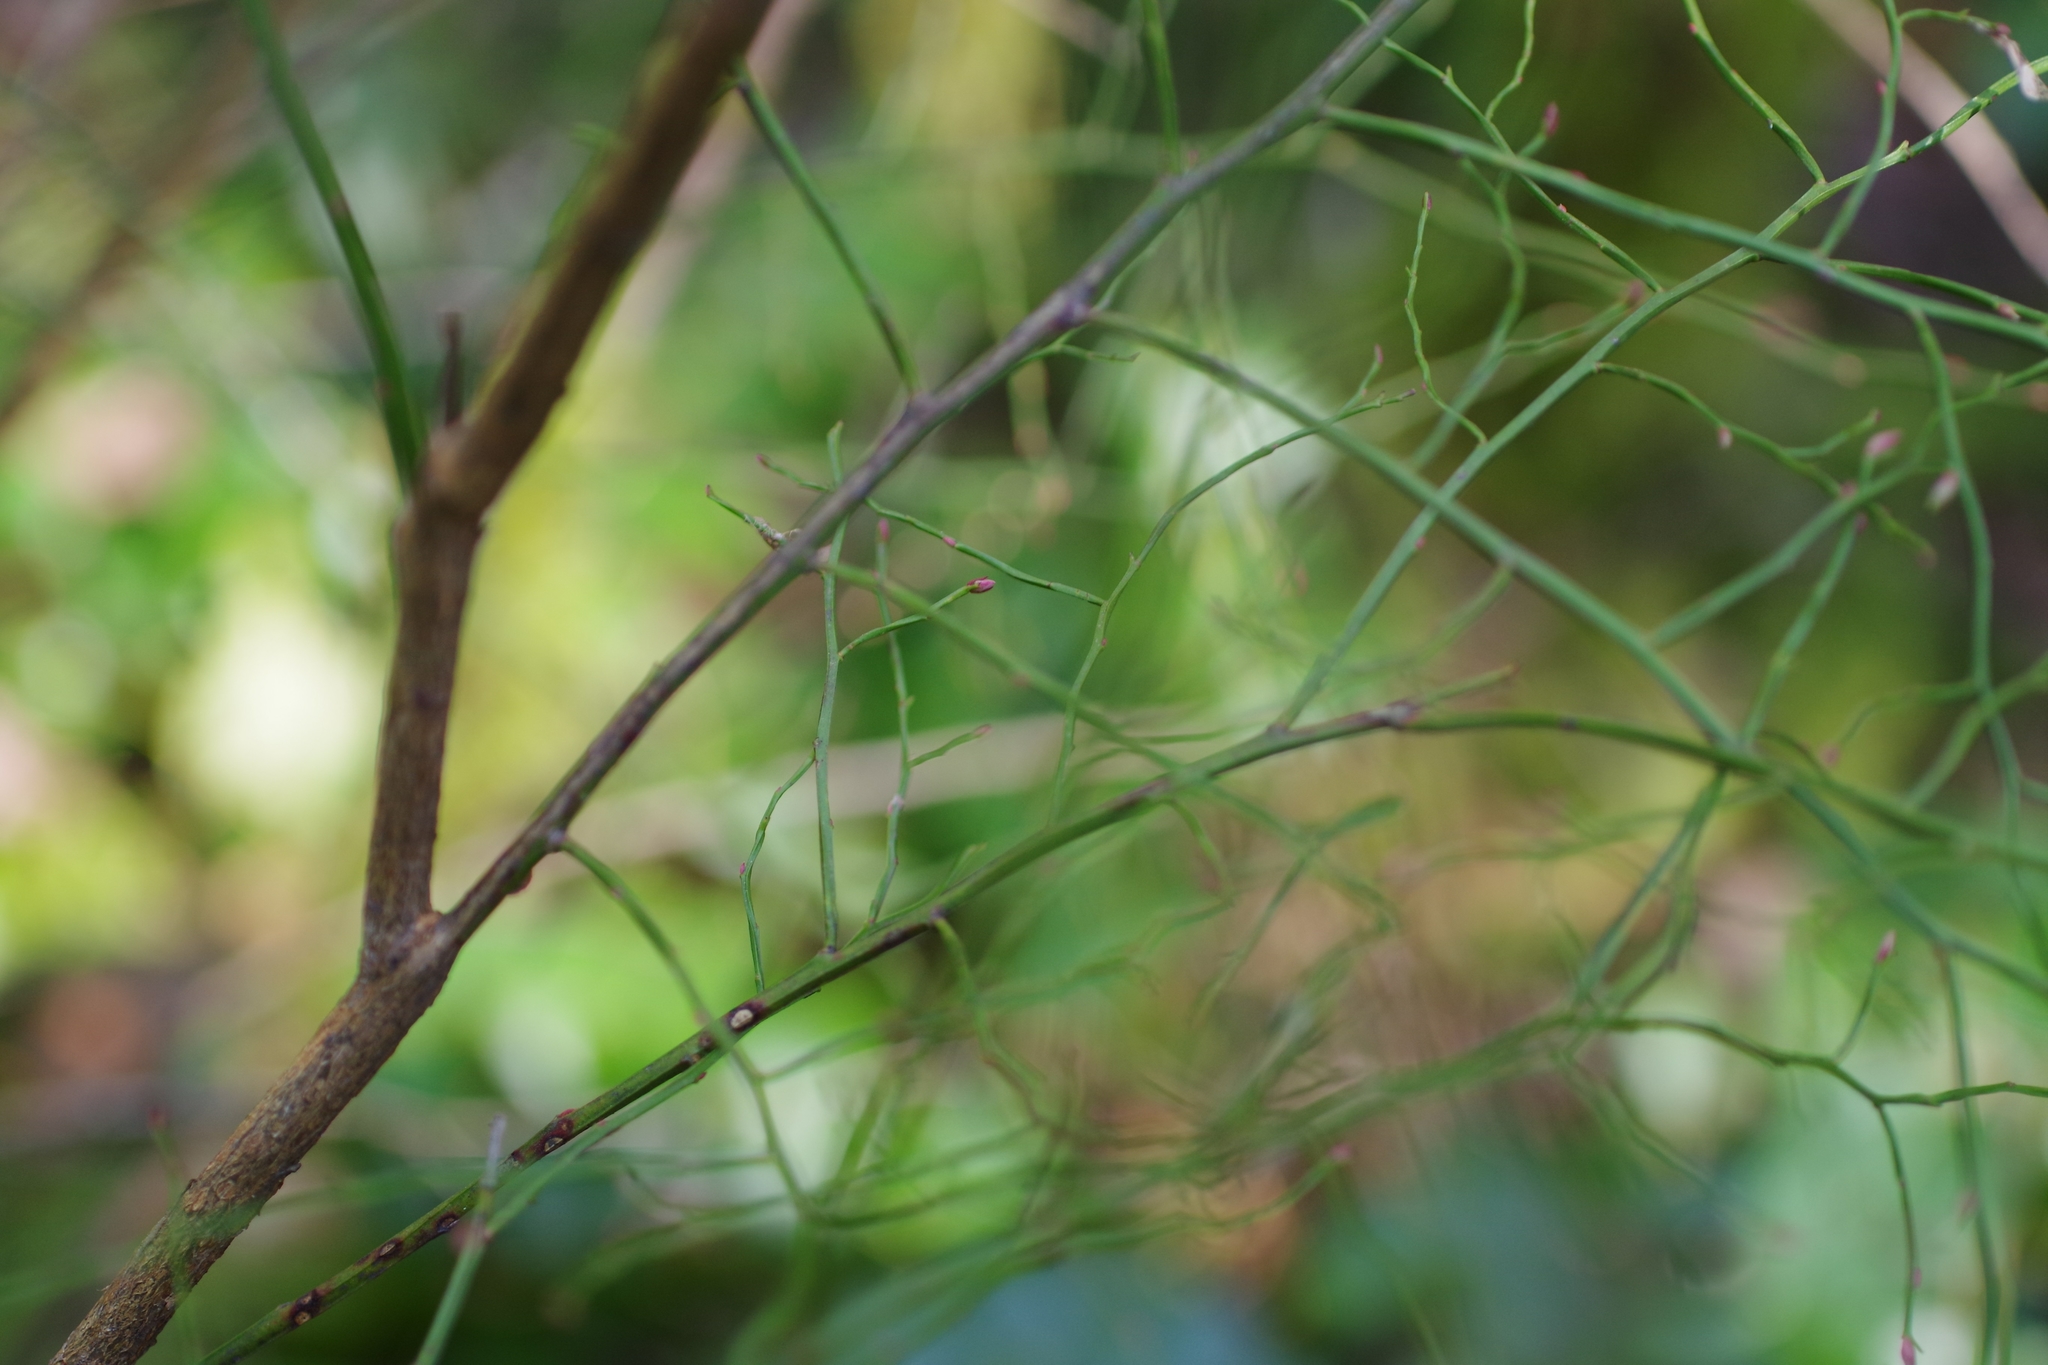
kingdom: Plantae
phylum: Tracheophyta
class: Magnoliopsida
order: Ericales
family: Ericaceae
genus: Vaccinium
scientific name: Vaccinium parvifolium
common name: Red-huckleberry
